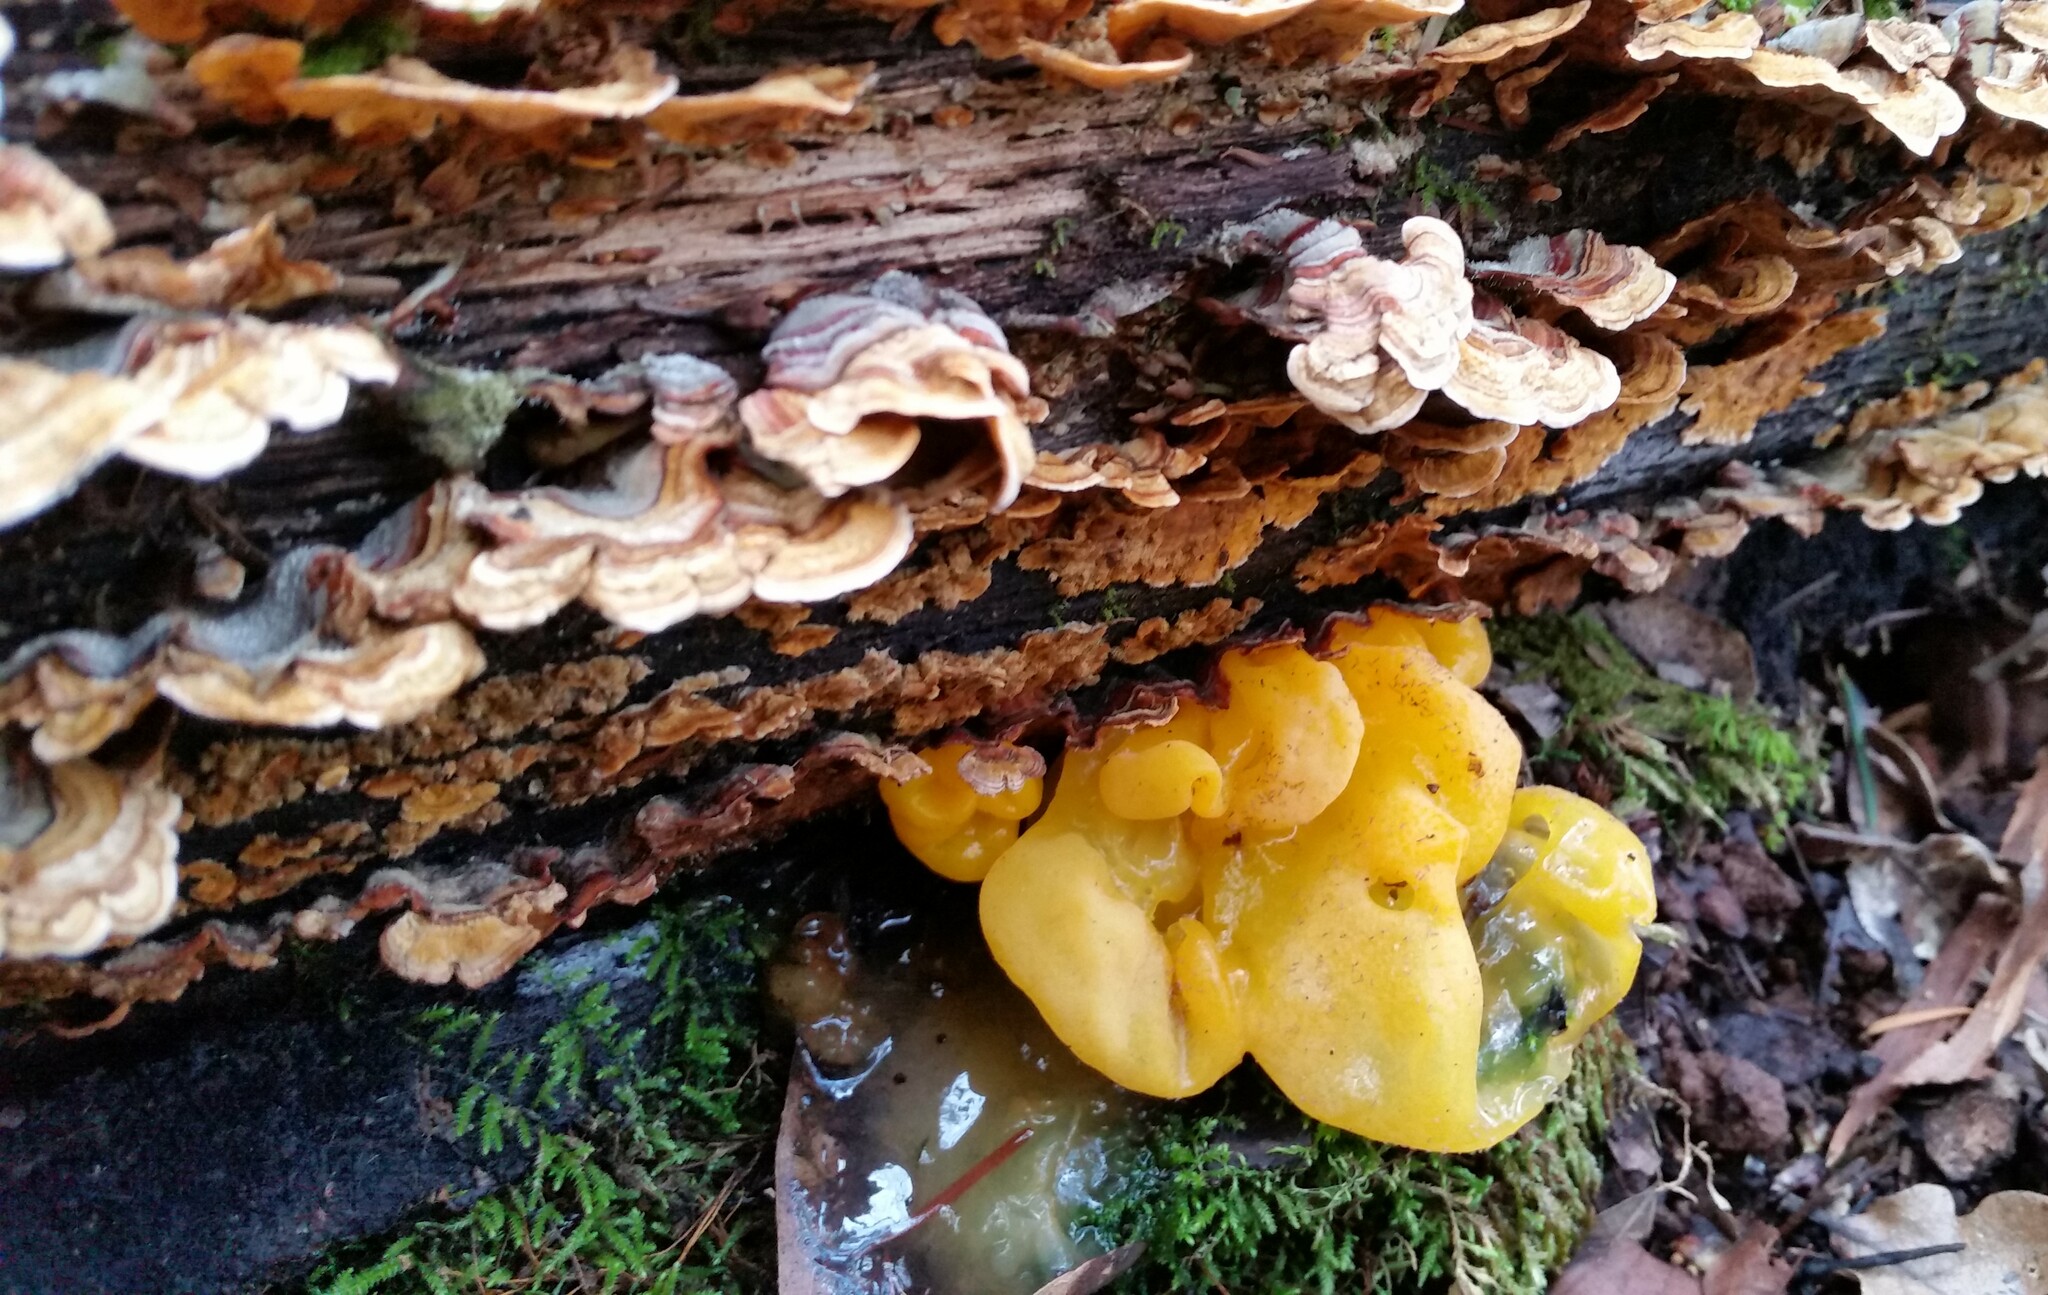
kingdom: Fungi
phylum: Basidiomycota
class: Tremellomycetes
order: Tremellales
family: Naemateliaceae
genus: Naematelia
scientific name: Naematelia aurantia
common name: Golden ear
